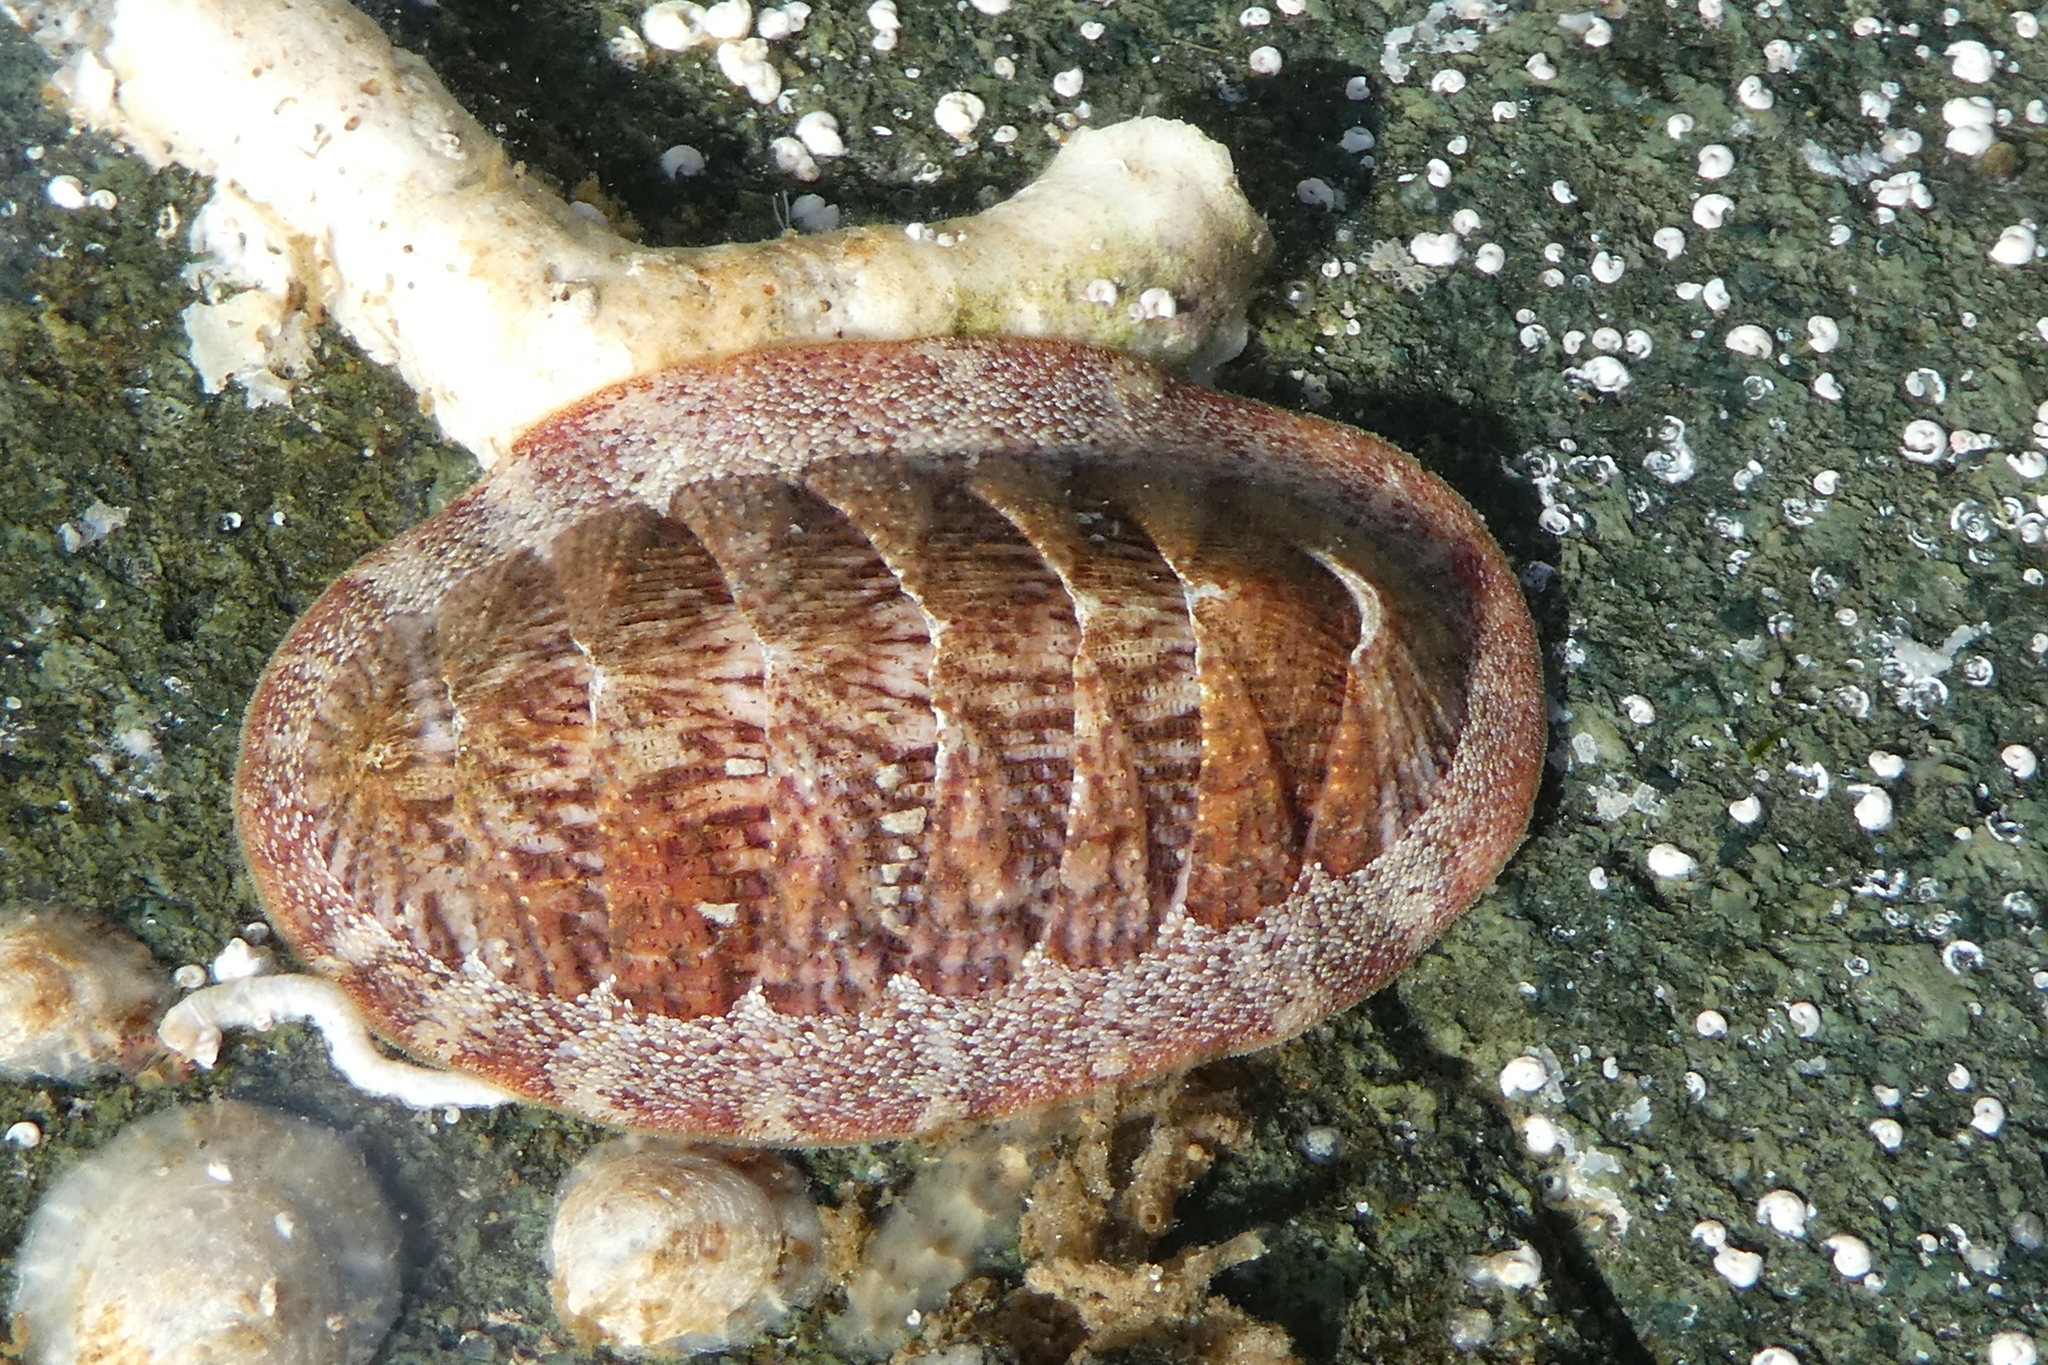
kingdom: Animalia
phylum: Mollusca
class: Polyplacophora
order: Chitonida
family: Ischnochitonidae
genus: Lepidozona
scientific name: Lepidozona mertensii
